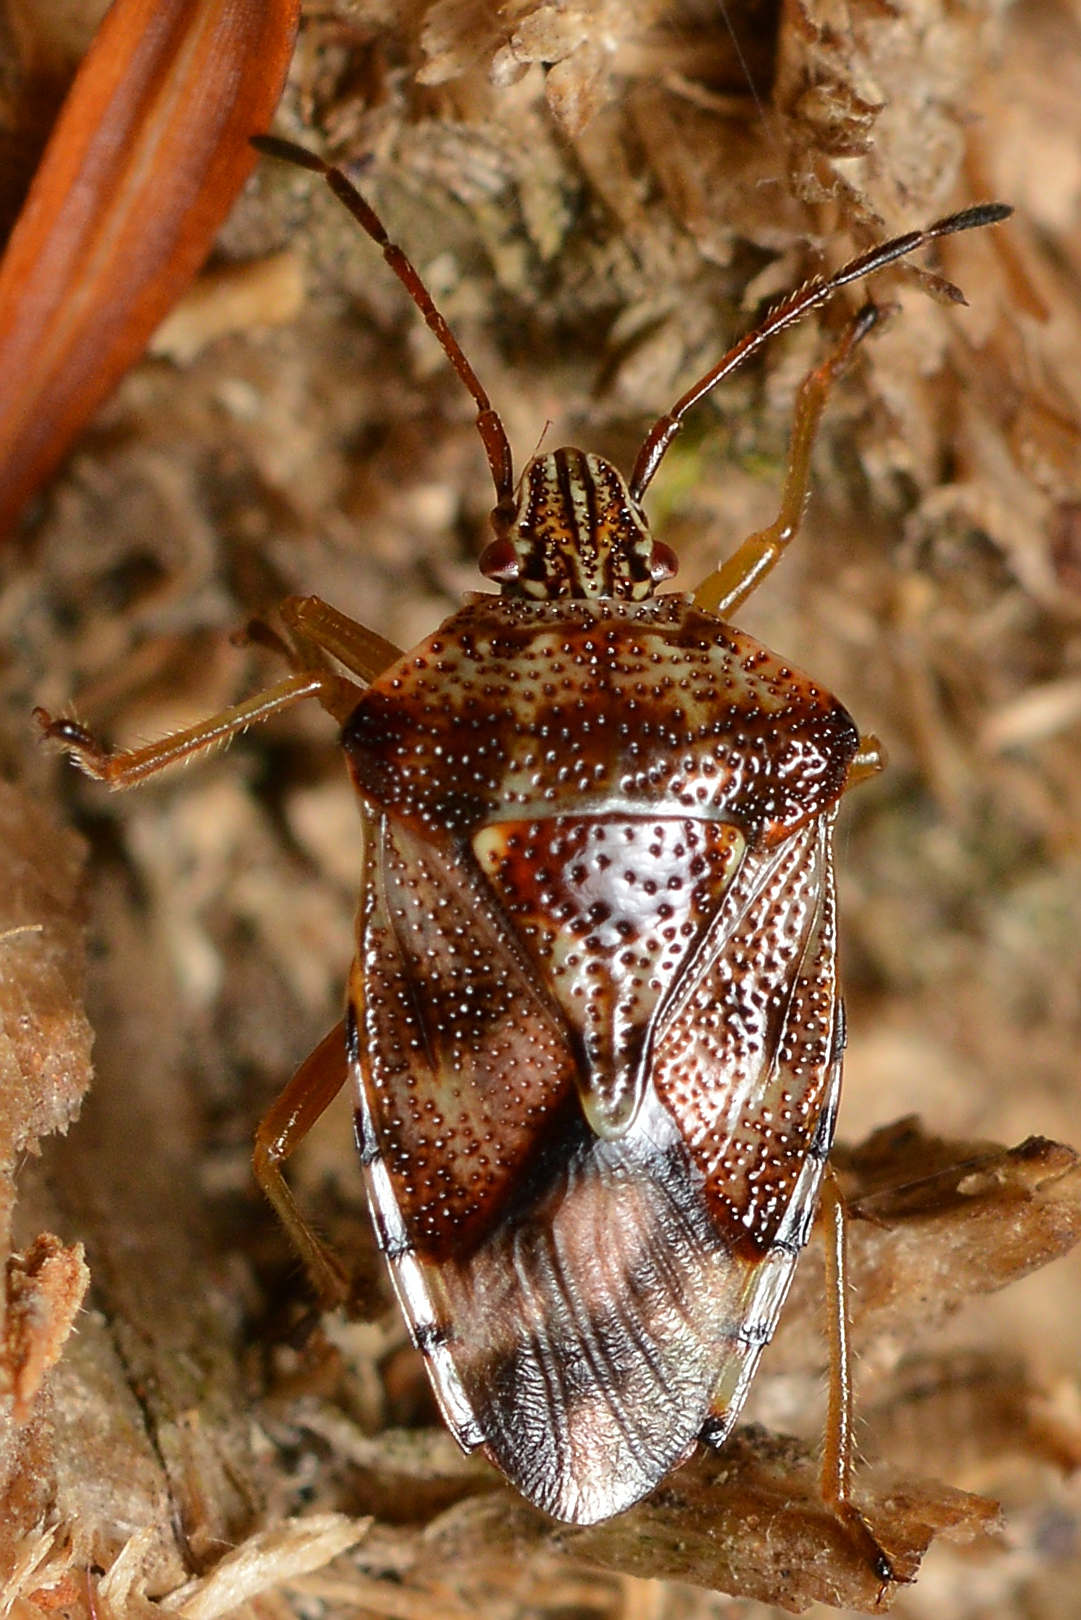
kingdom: Animalia
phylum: Arthropoda
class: Insecta
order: Hemiptera
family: Acanthosomatidae
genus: Elasmucha
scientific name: Elasmucha lateralis
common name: Shield bug
